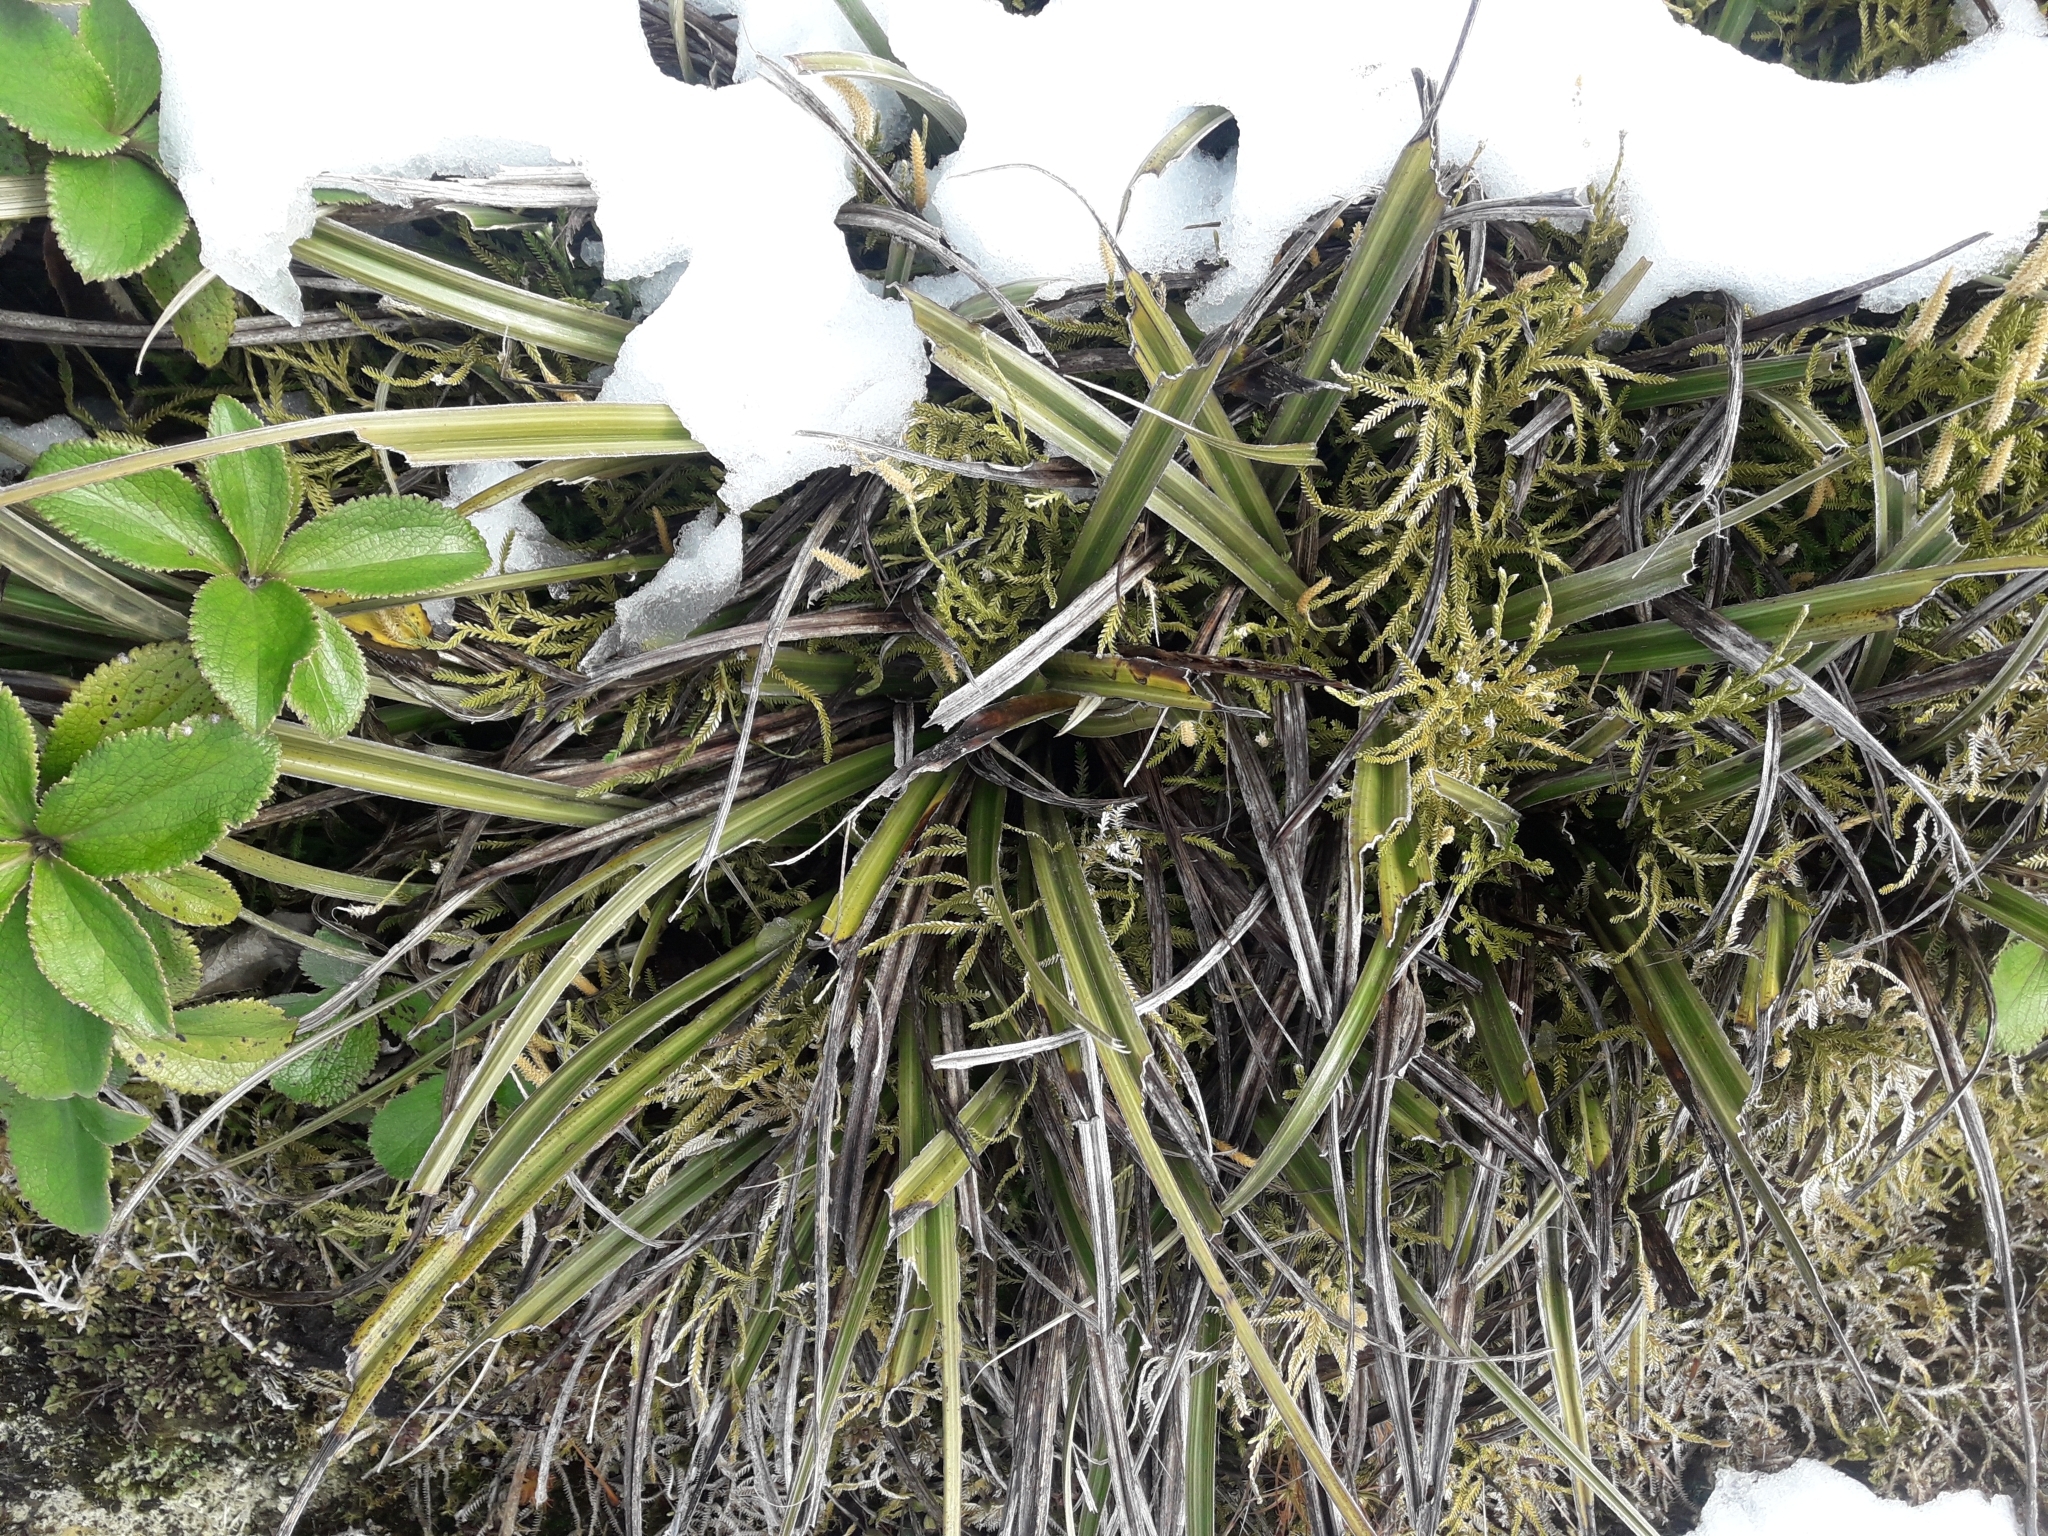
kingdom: Plantae
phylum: Tracheophyta
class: Liliopsida
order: Asparagales
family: Asteliaceae
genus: Astelia
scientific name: Astelia nervosa
